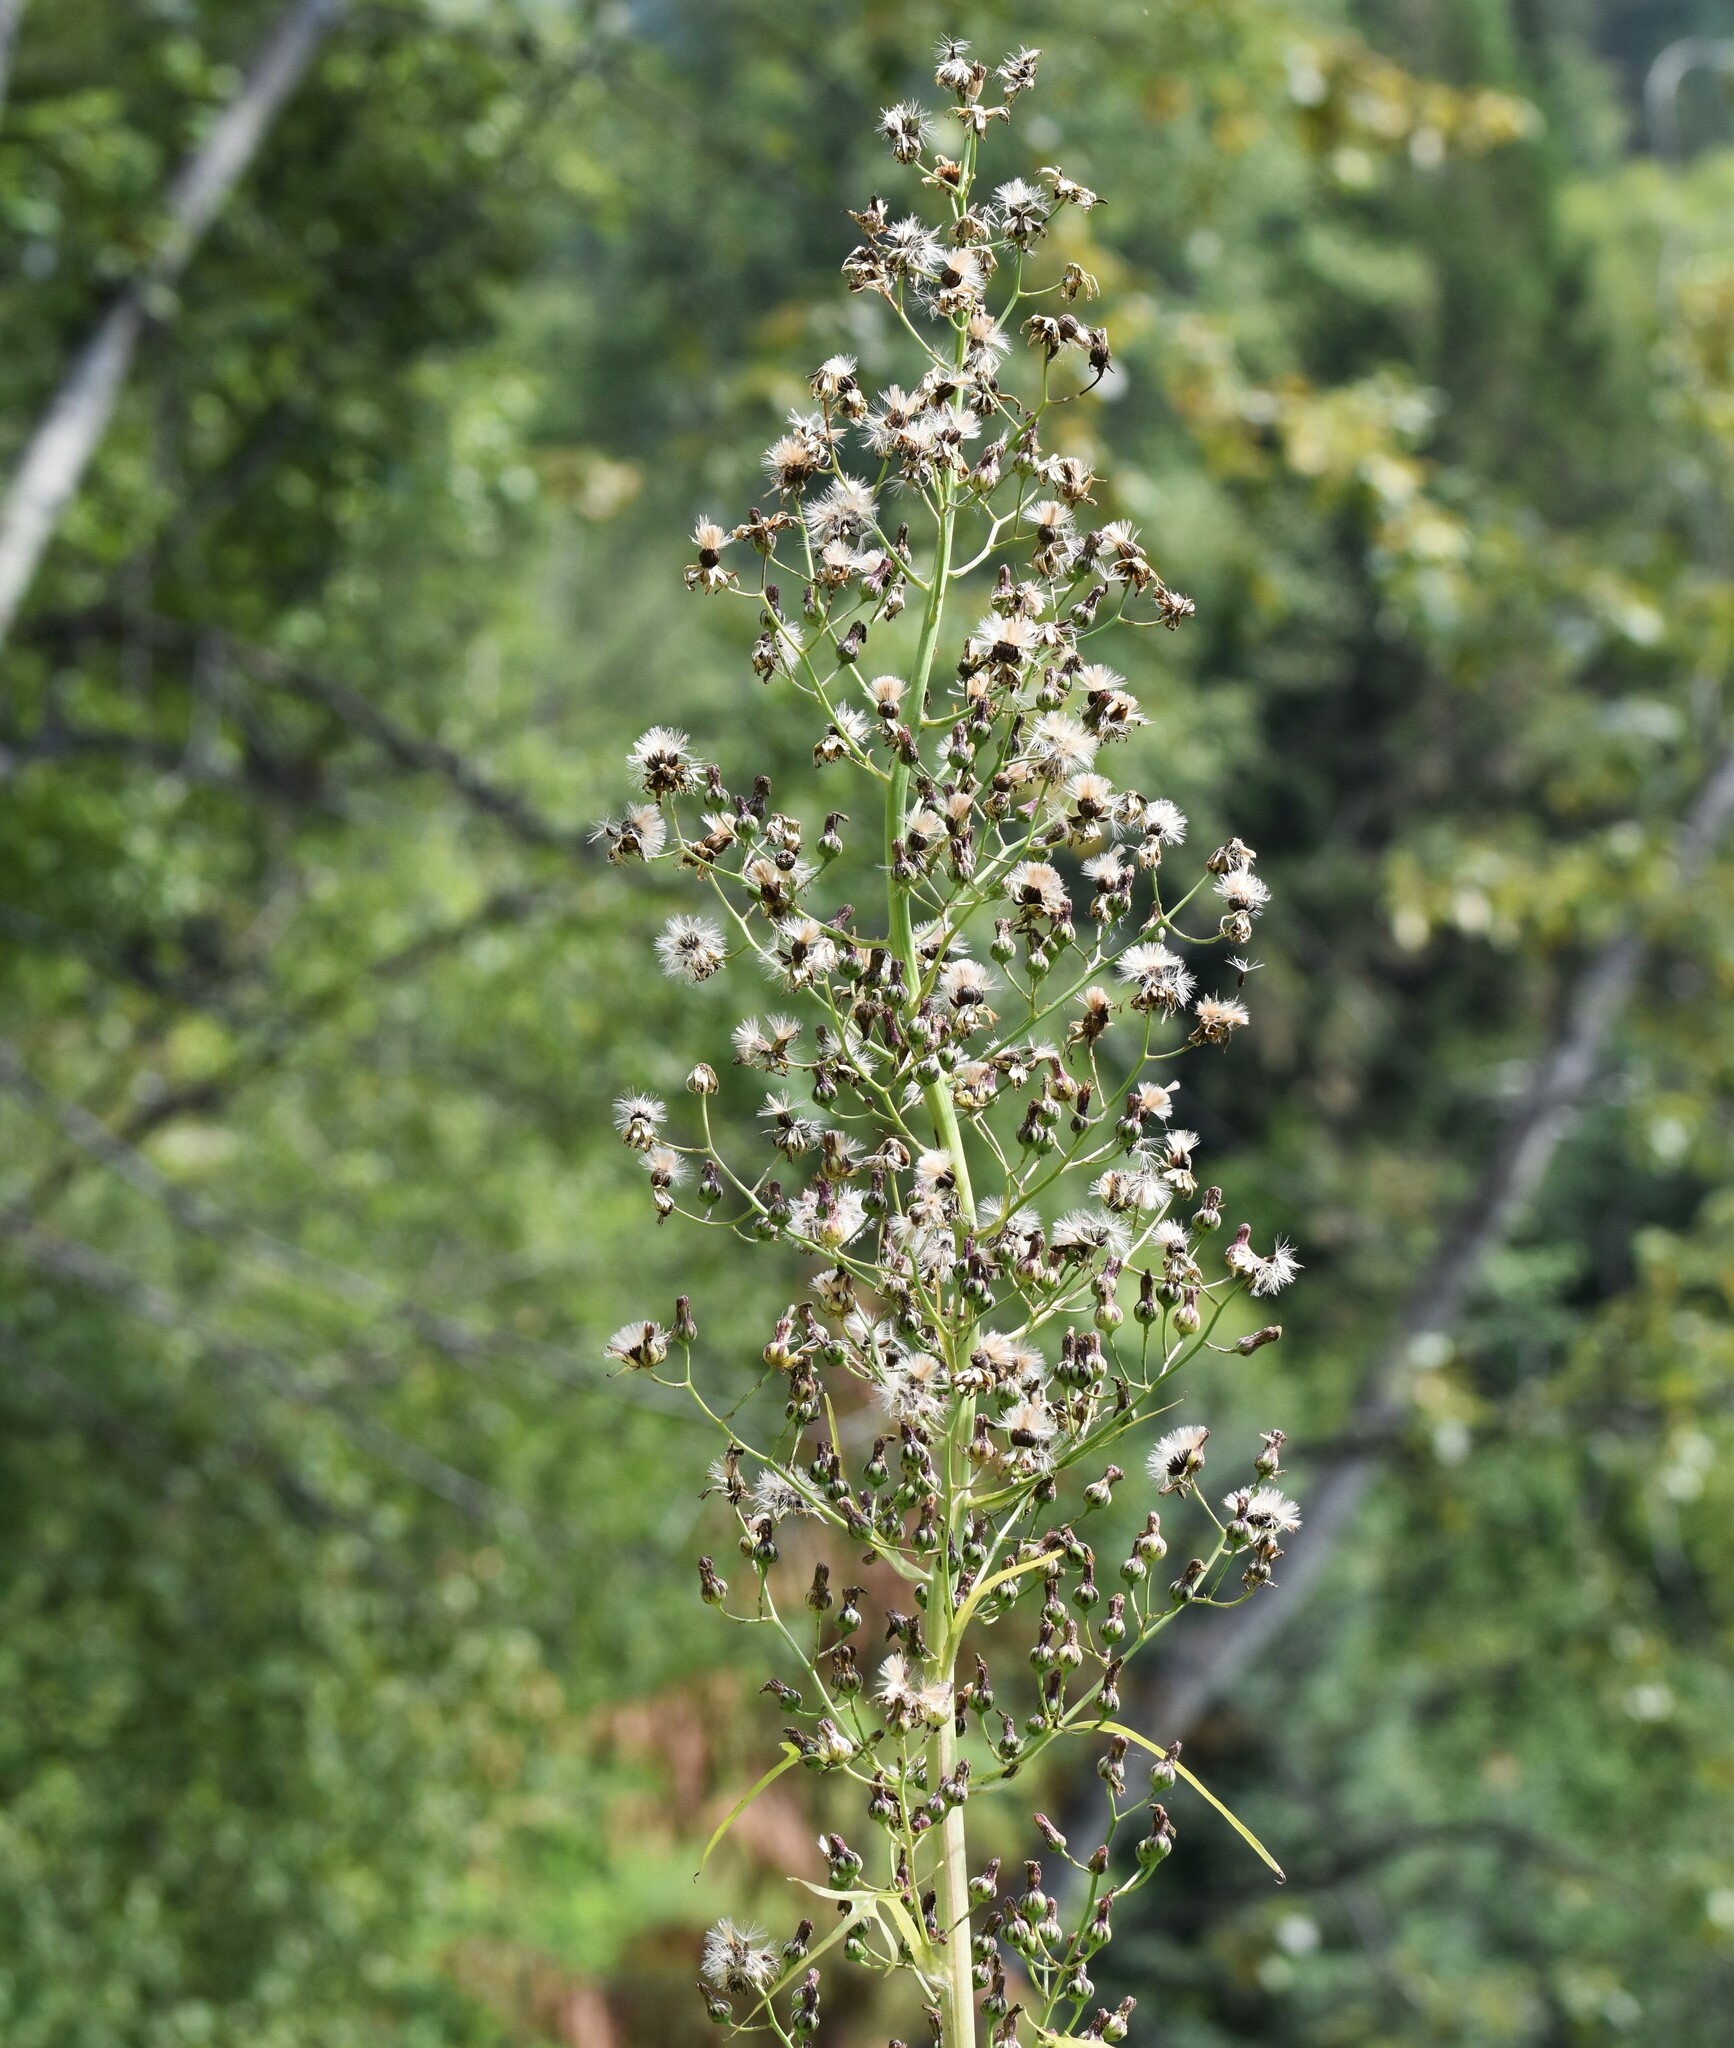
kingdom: Plantae
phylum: Tracheophyta
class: Magnoliopsida
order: Asterales
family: Asteraceae
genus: Lactuca
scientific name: Lactuca biennis
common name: Blue wood lettuce
